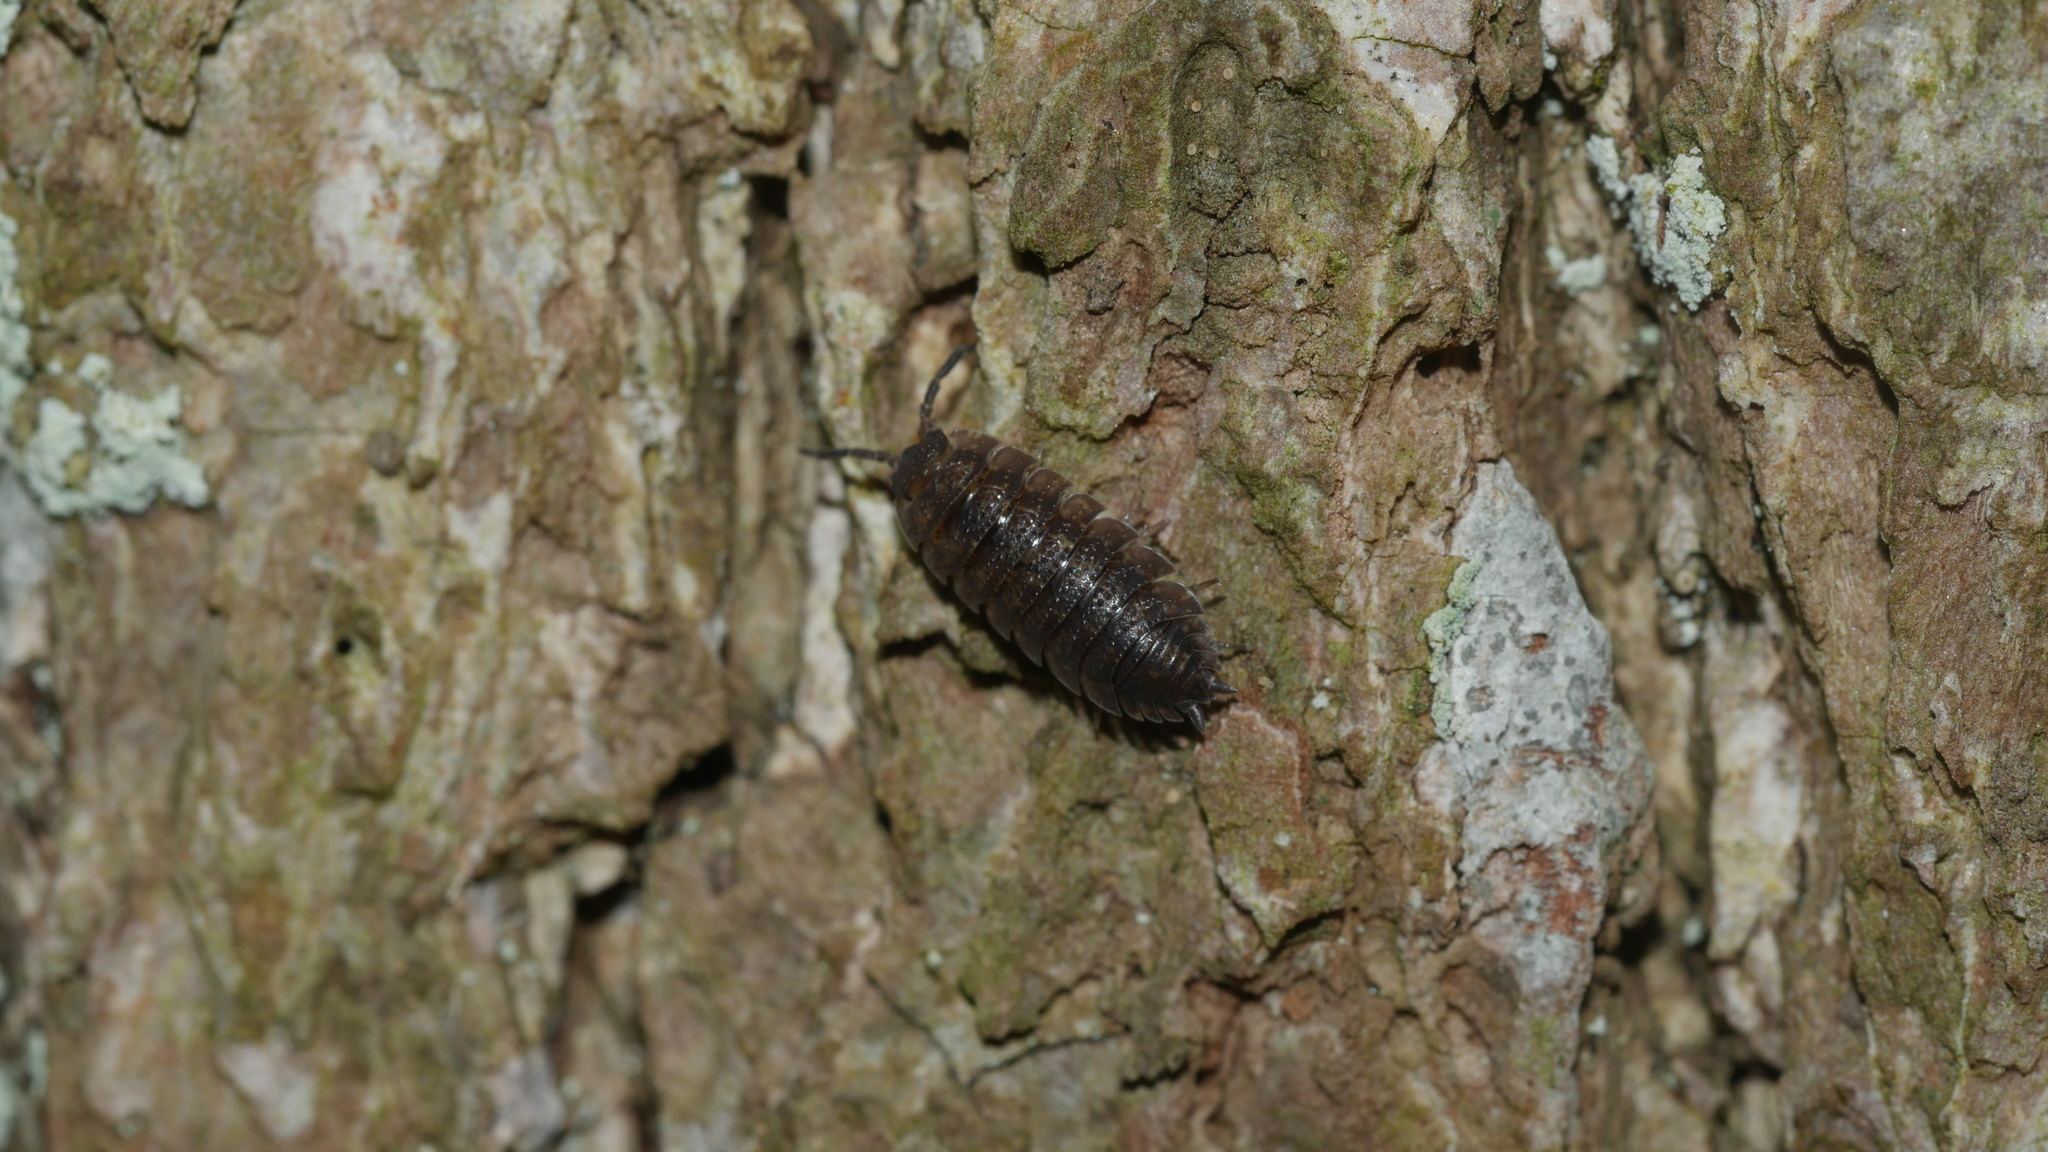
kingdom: Animalia
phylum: Arthropoda
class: Malacostraca
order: Isopoda
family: Porcellionidae
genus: Porcellio
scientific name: Porcellio scaber
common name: Common rough woodlouse
